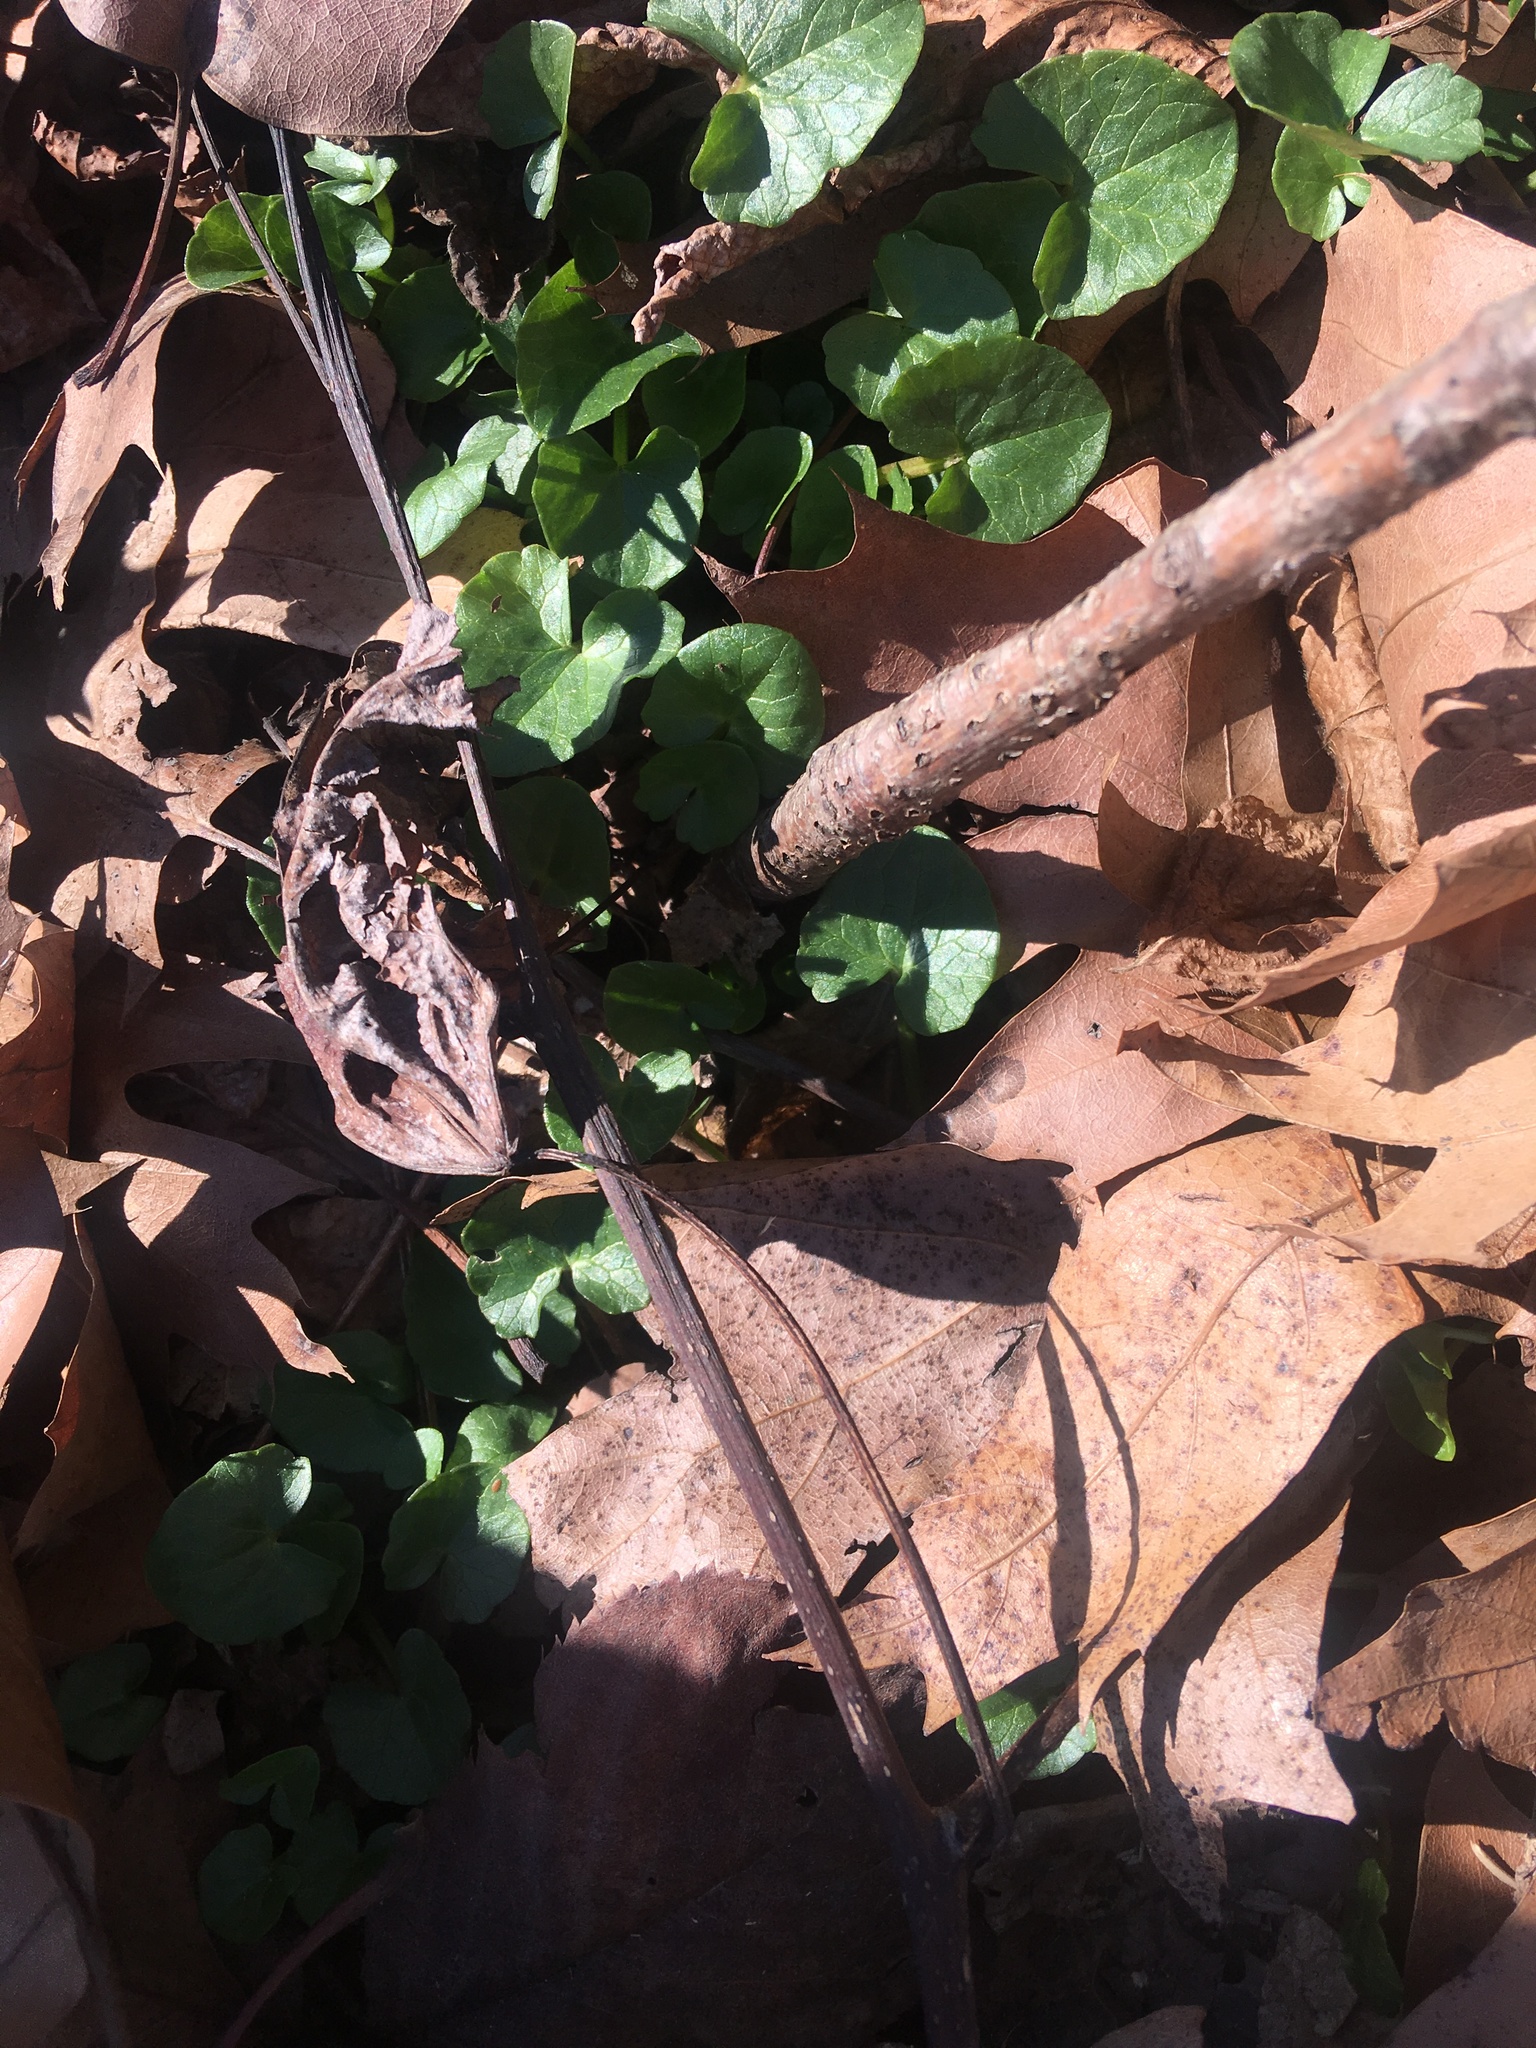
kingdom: Plantae
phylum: Tracheophyta
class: Magnoliopsida
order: Ranunculales
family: Ranunculaceae
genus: Ficaria
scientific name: Ficaria verna
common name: Lesser celandine
